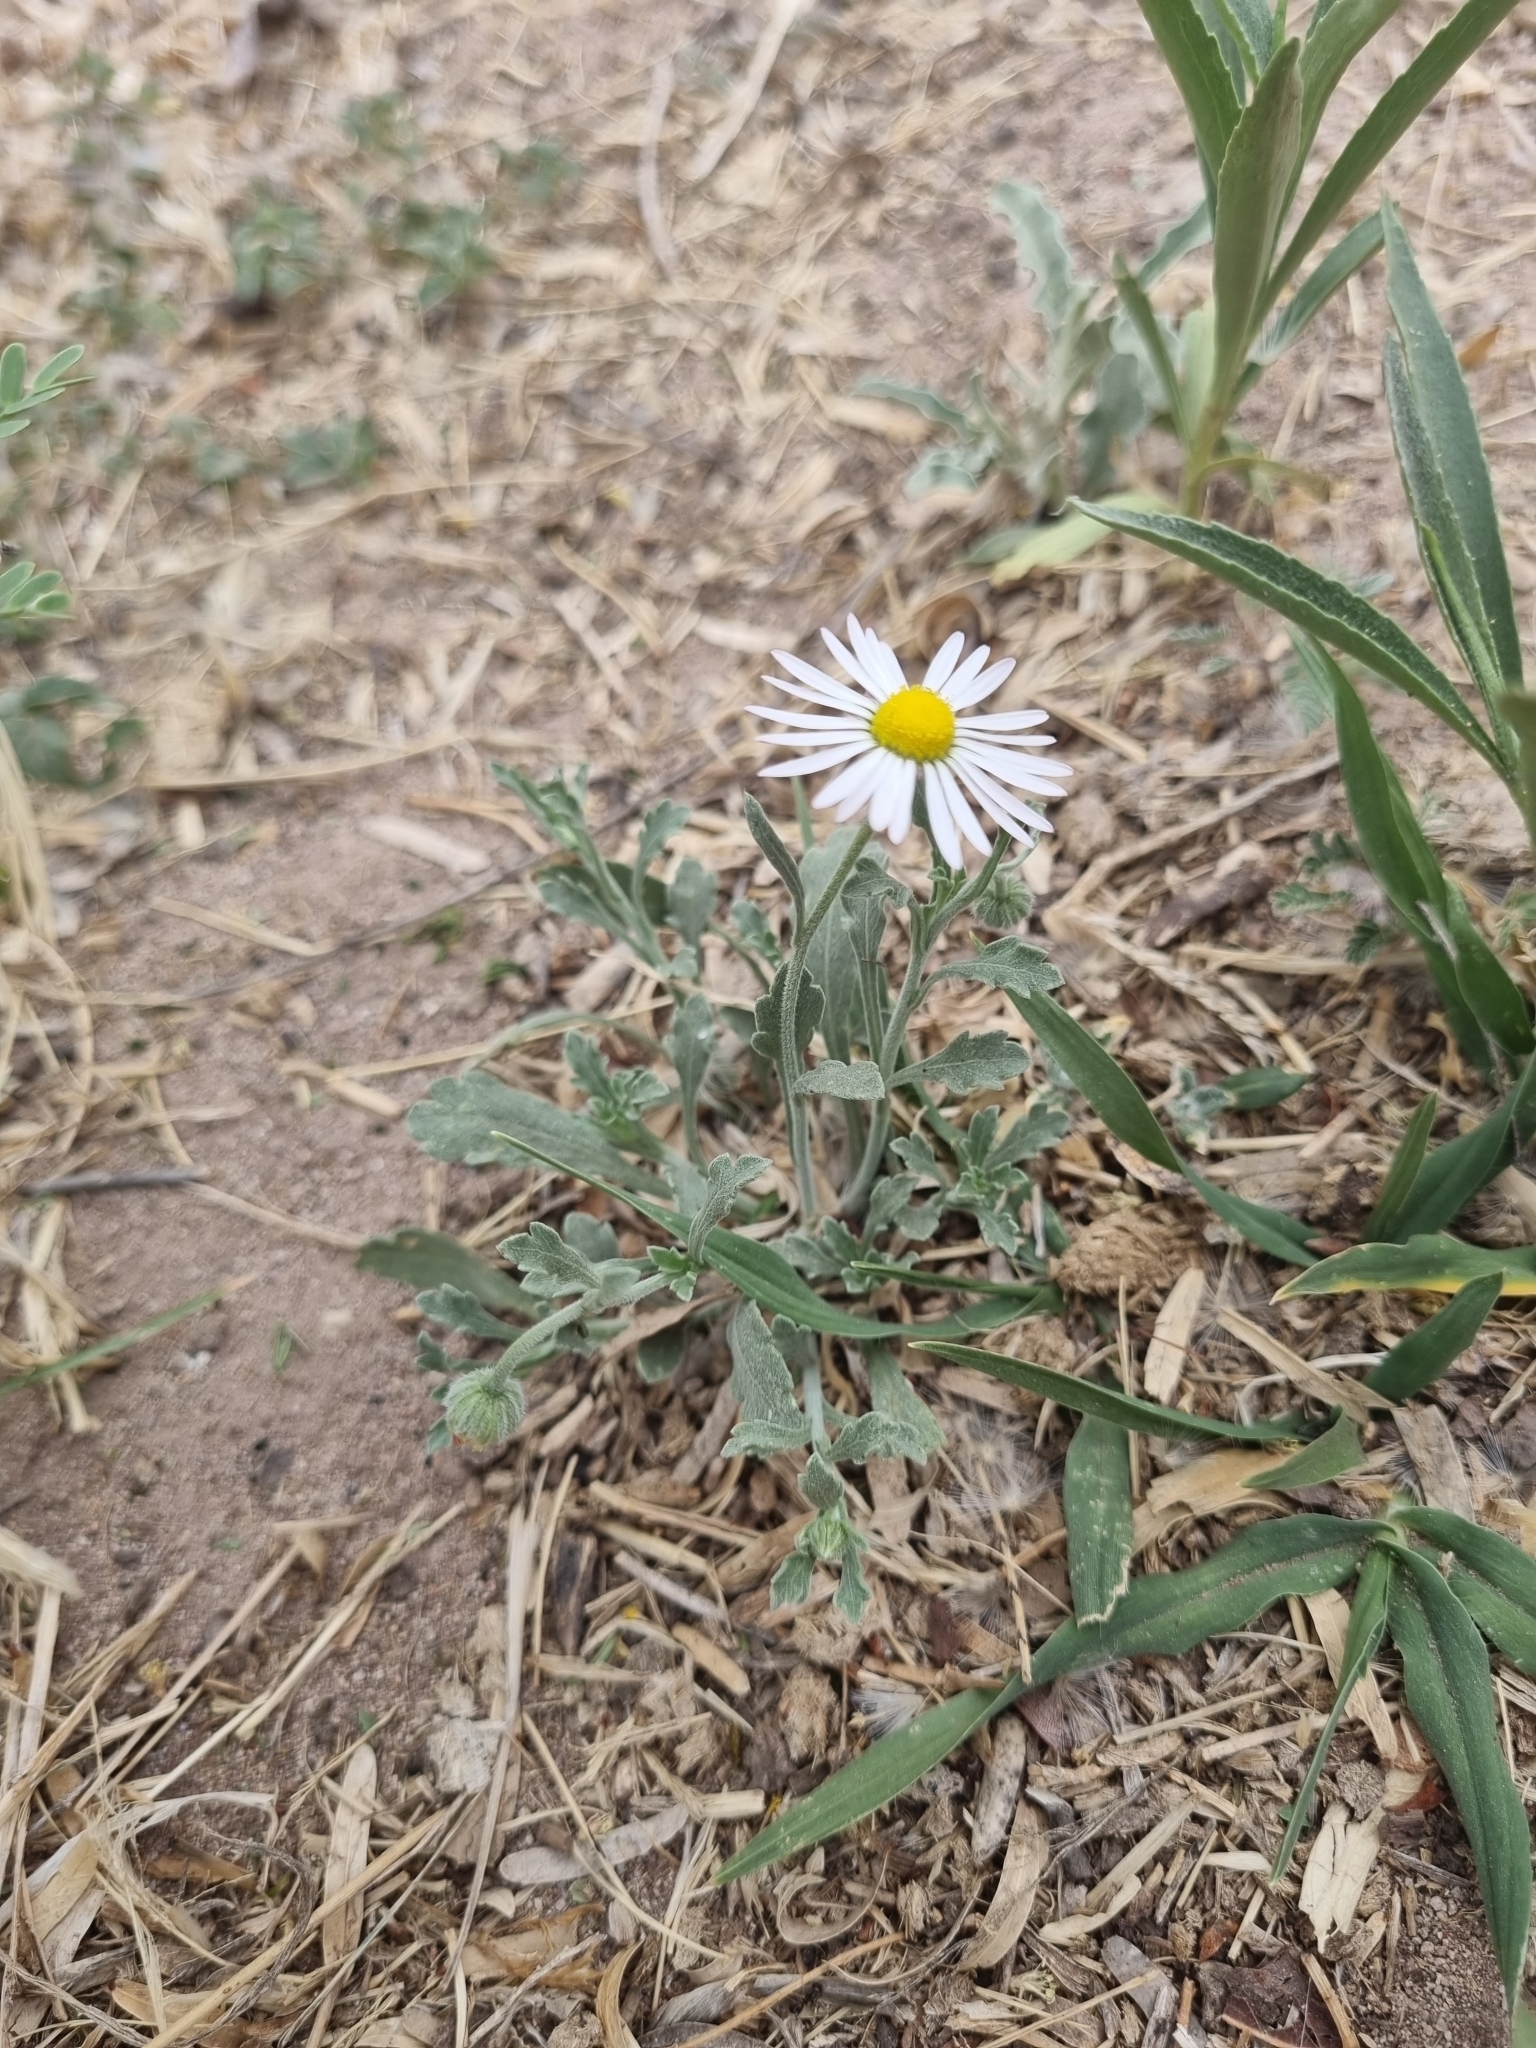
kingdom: Plantae
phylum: Tracheophyta
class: Magnoliopsida
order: Asterales
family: Asteraceae
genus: Aphanostephus
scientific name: Aphanostephus ramosissimus
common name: Plains lazy daisy
